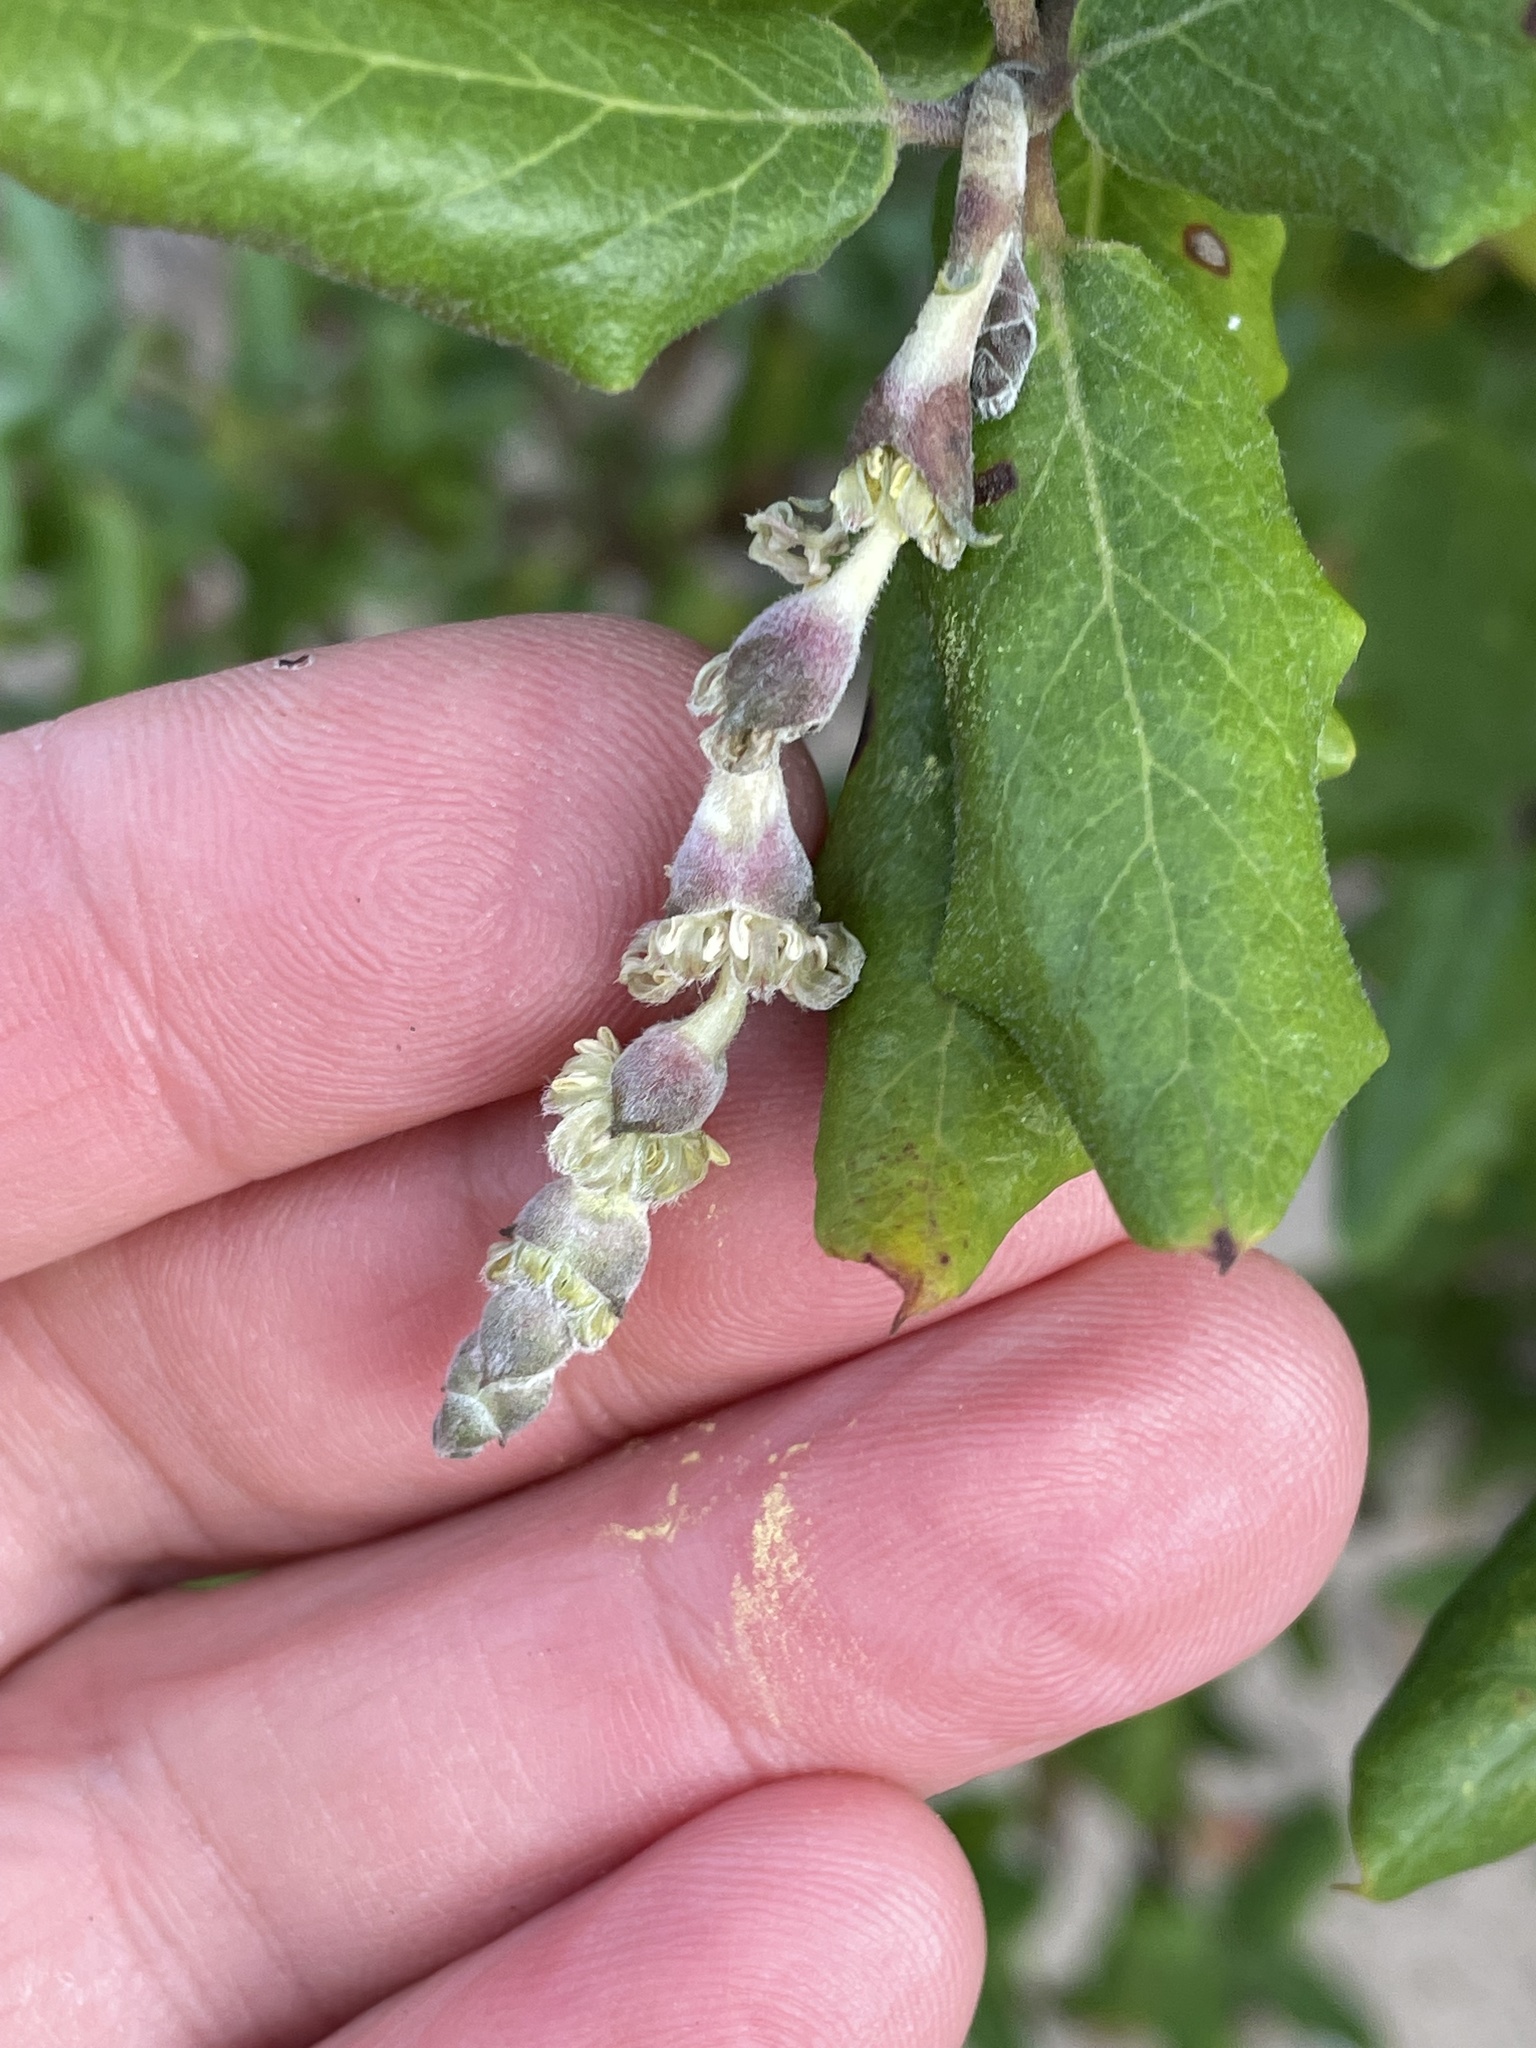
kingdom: Plantae
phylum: Tracheophyta
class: Magnoliopsida
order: Garryales
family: Garryaceae
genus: Garrya
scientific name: Garrya elliptica
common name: Silk-tassel
